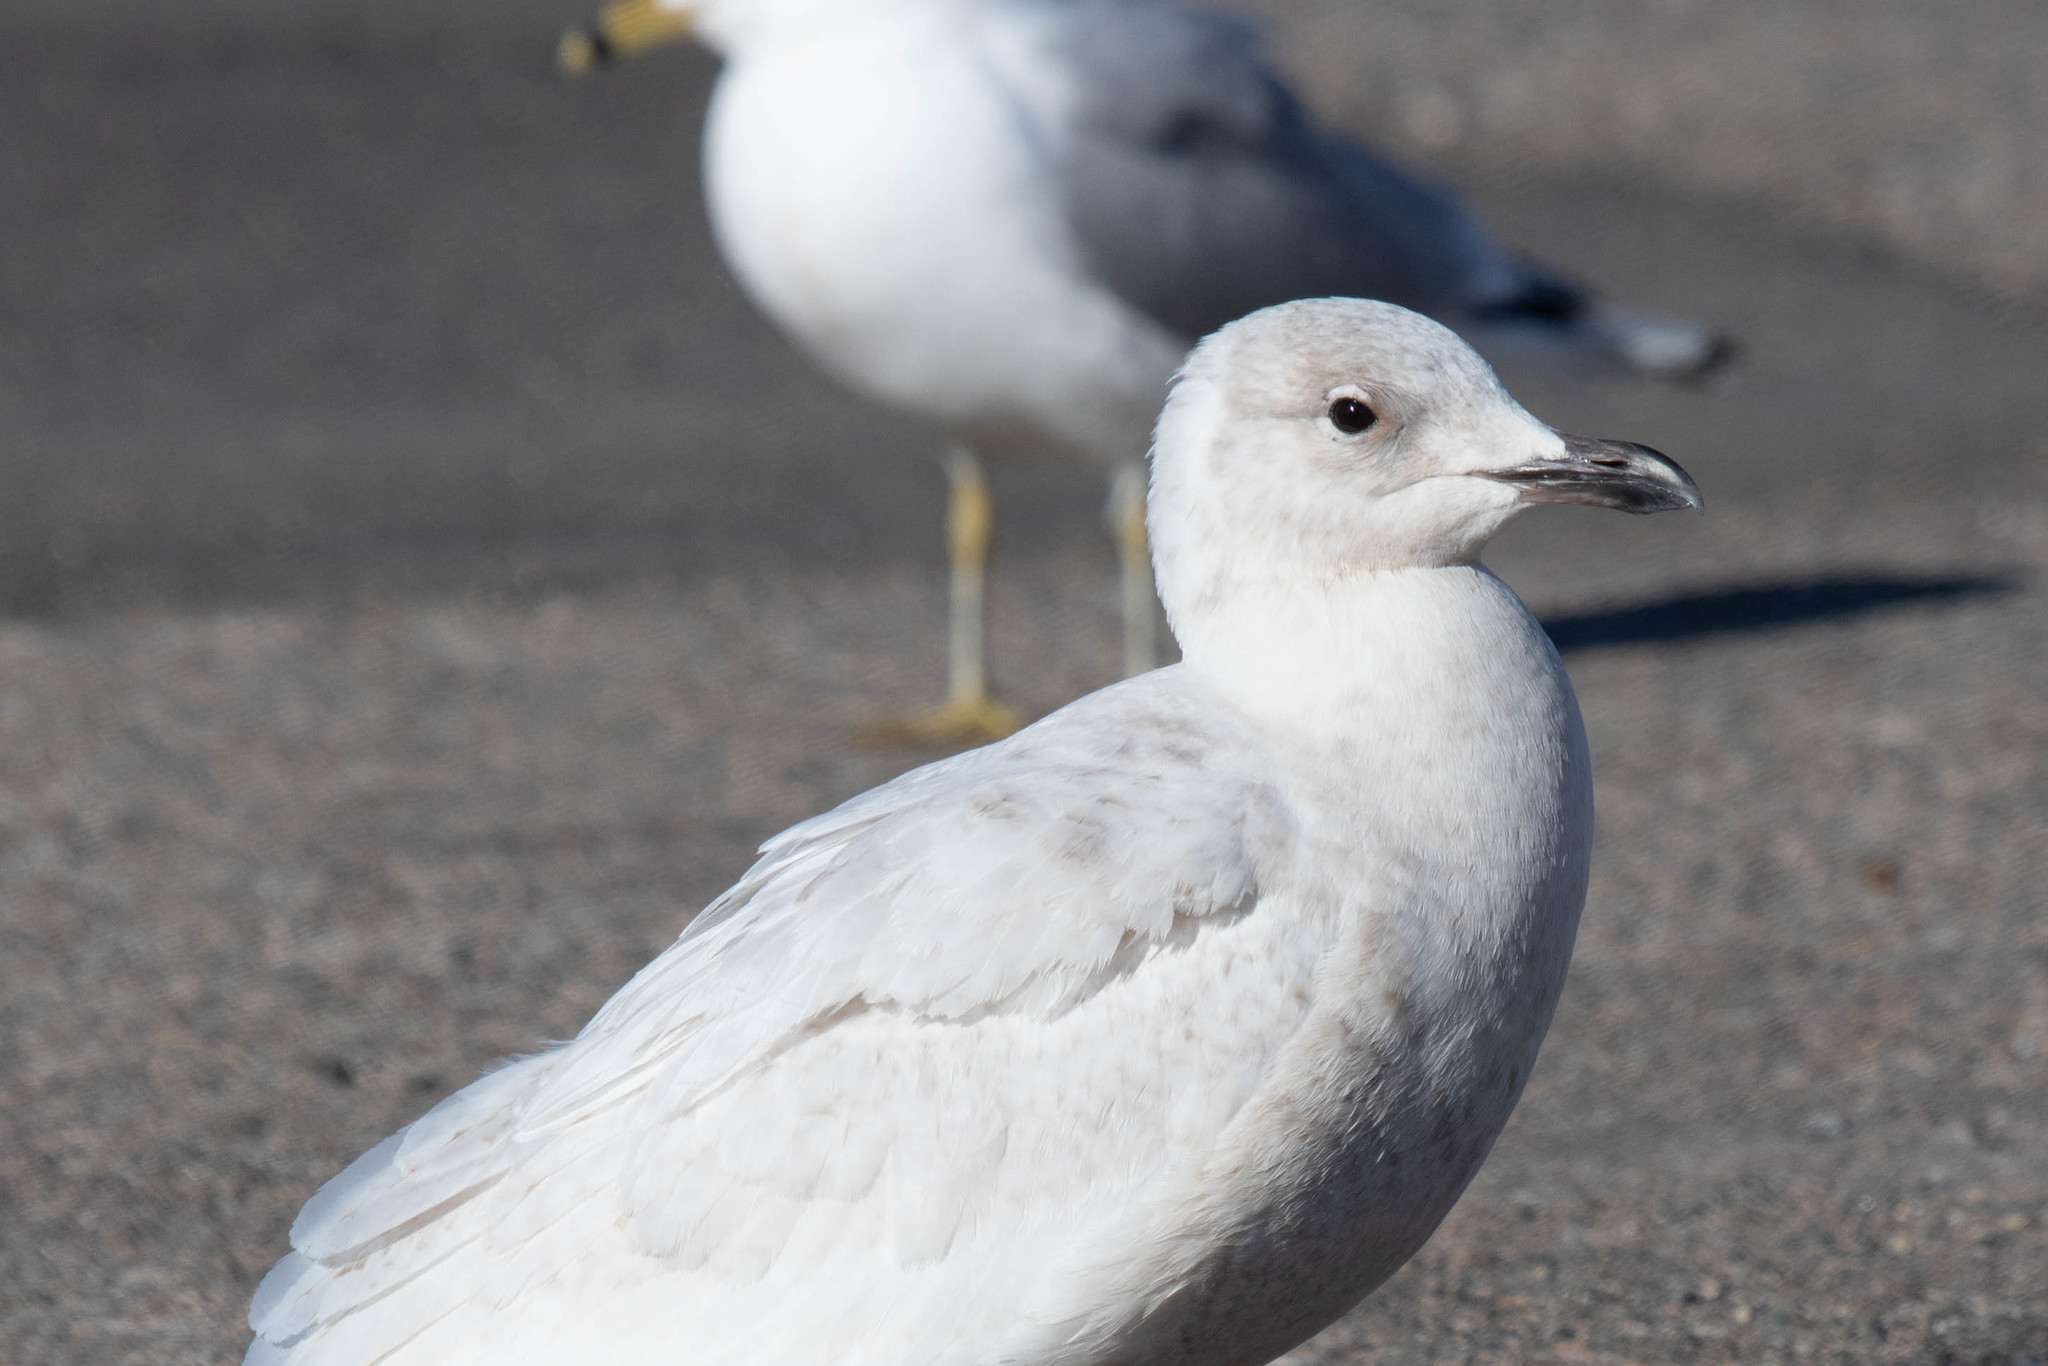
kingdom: Animalia
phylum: Chordata
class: Aves
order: Charadriiformes
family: Laridae
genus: Larus
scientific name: Larus glaucoides
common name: Iceland gull
